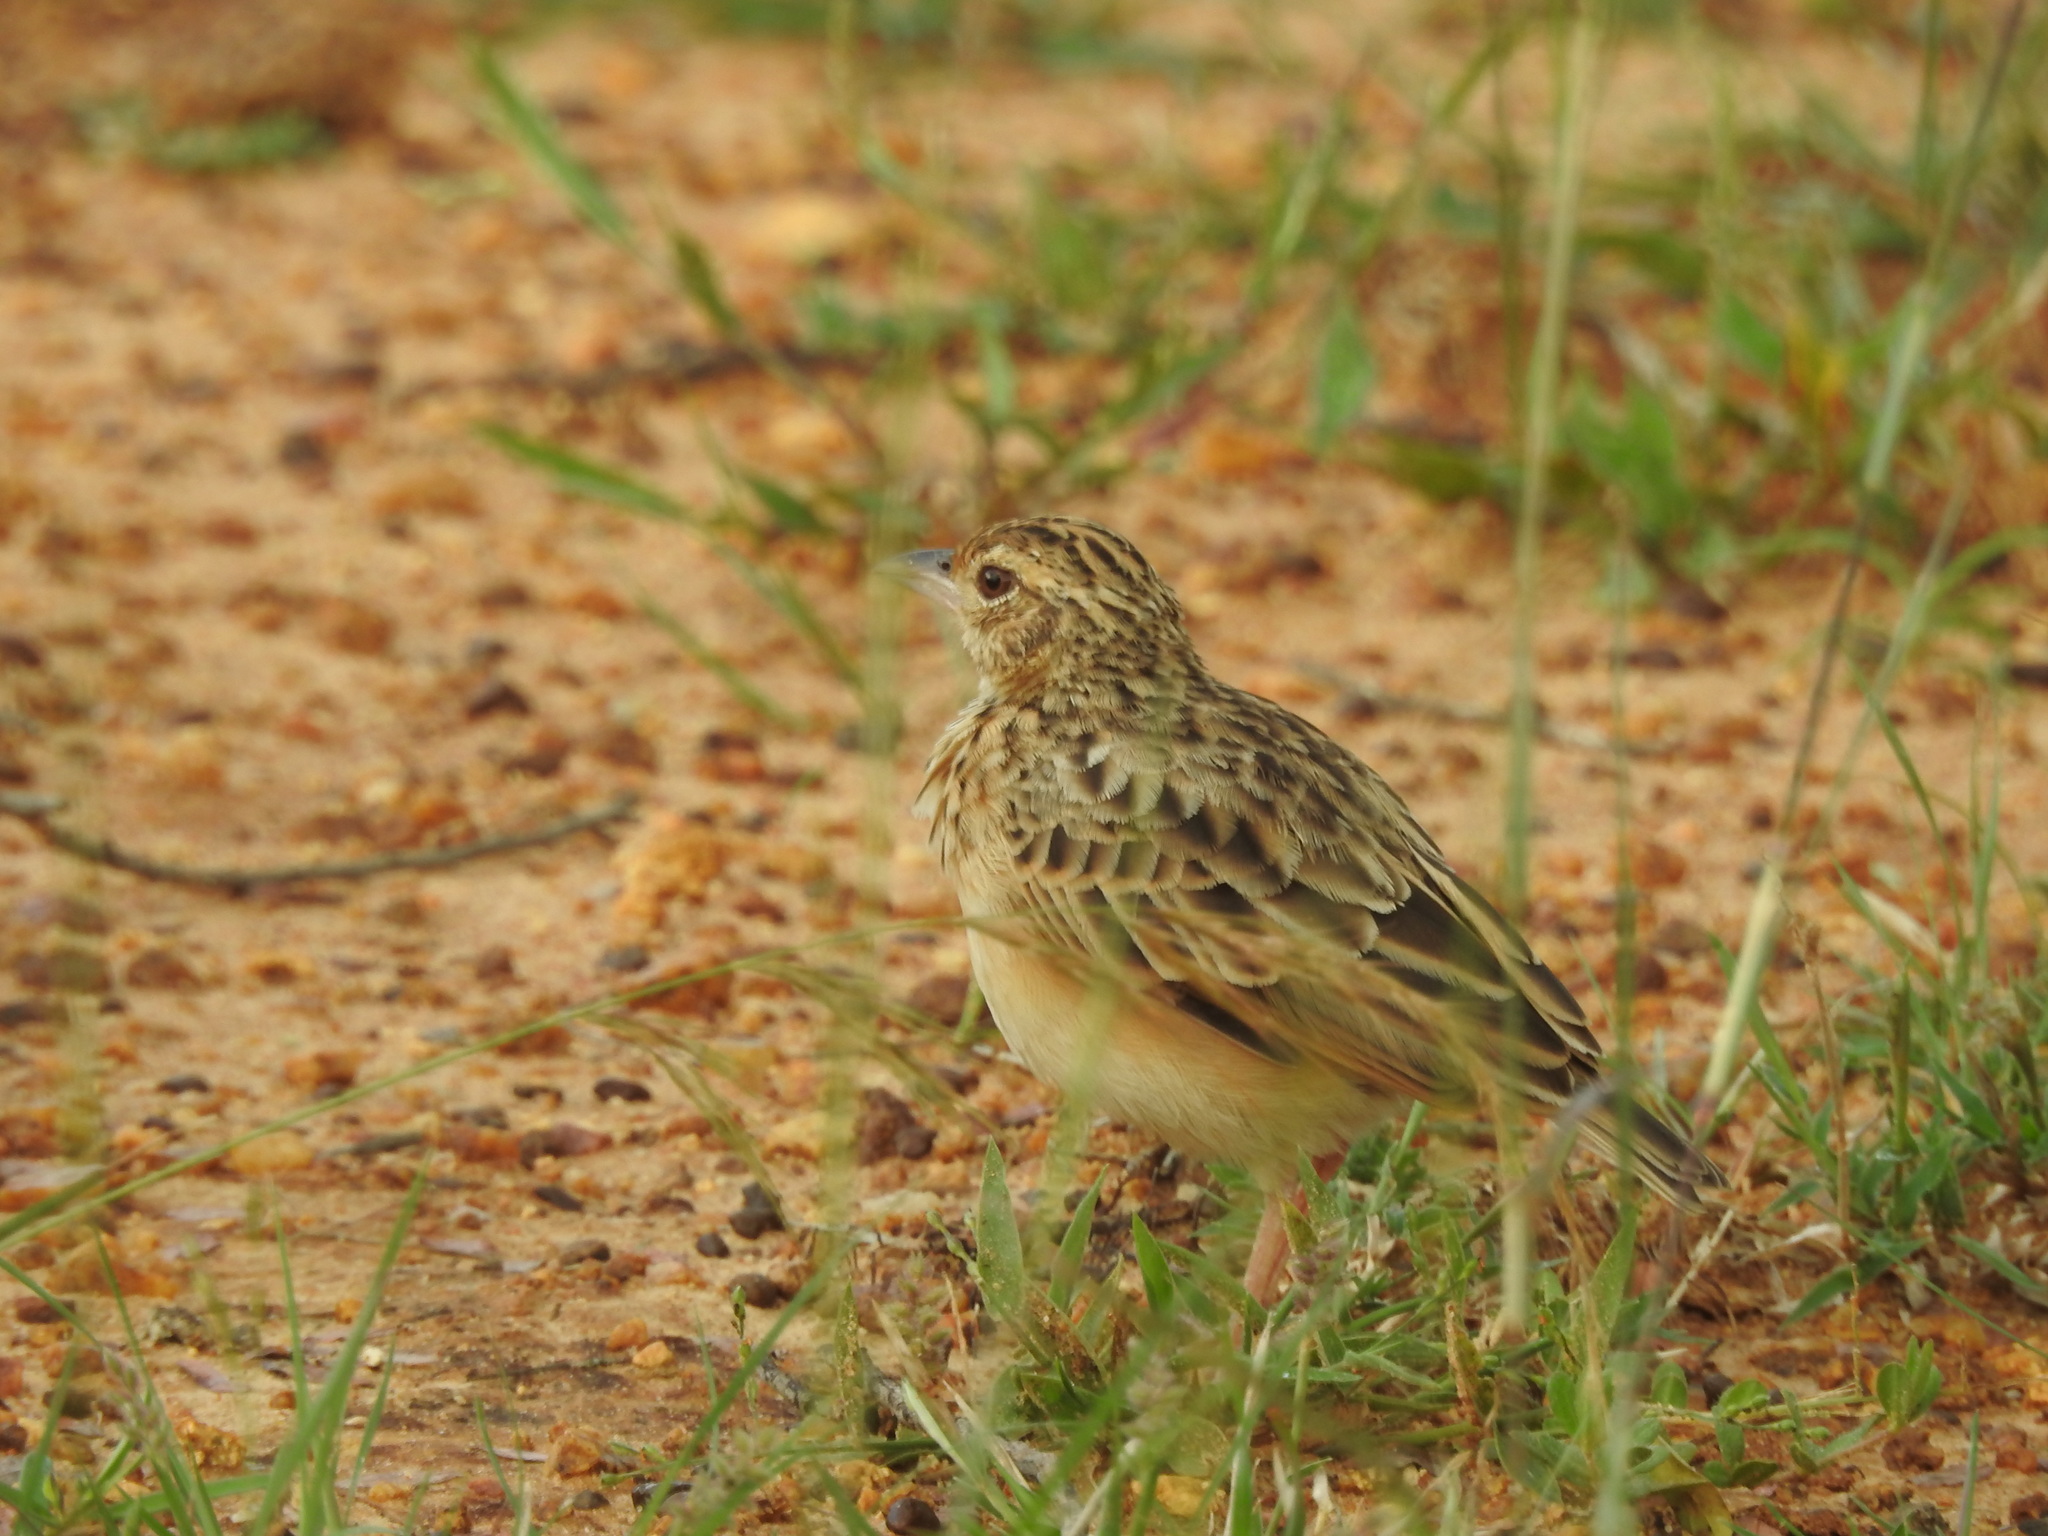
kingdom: Animalia
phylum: Chordata
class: Aves
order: Passeriformes
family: Alaudidae
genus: Mirafra
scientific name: Mirafra affinis
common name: Jerdon's bushlark
